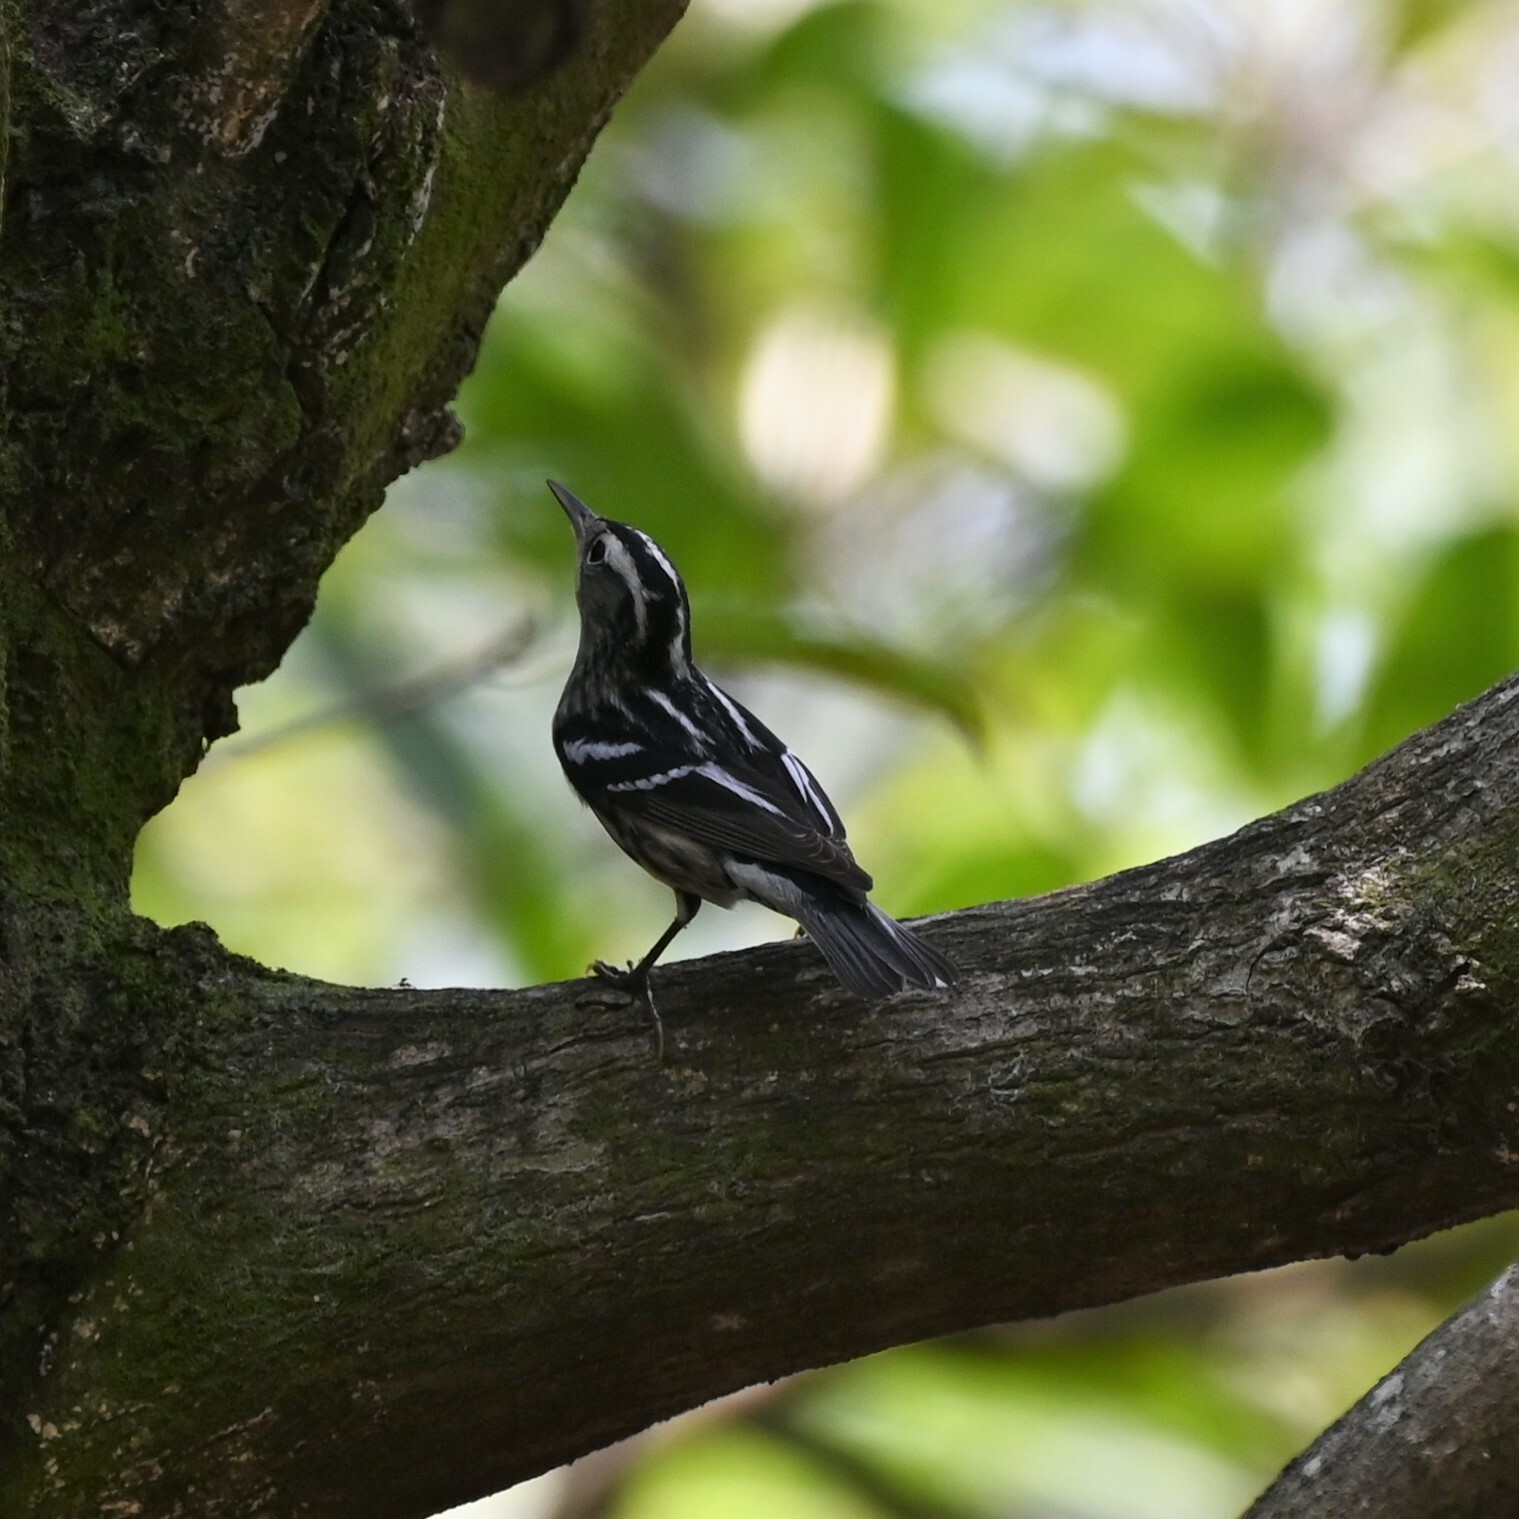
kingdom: Animalia
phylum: Chordata
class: Aves
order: Passeriformes
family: Parulidae
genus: Mniotilta
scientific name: Mniotilta varia
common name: Black-and-white warbler
